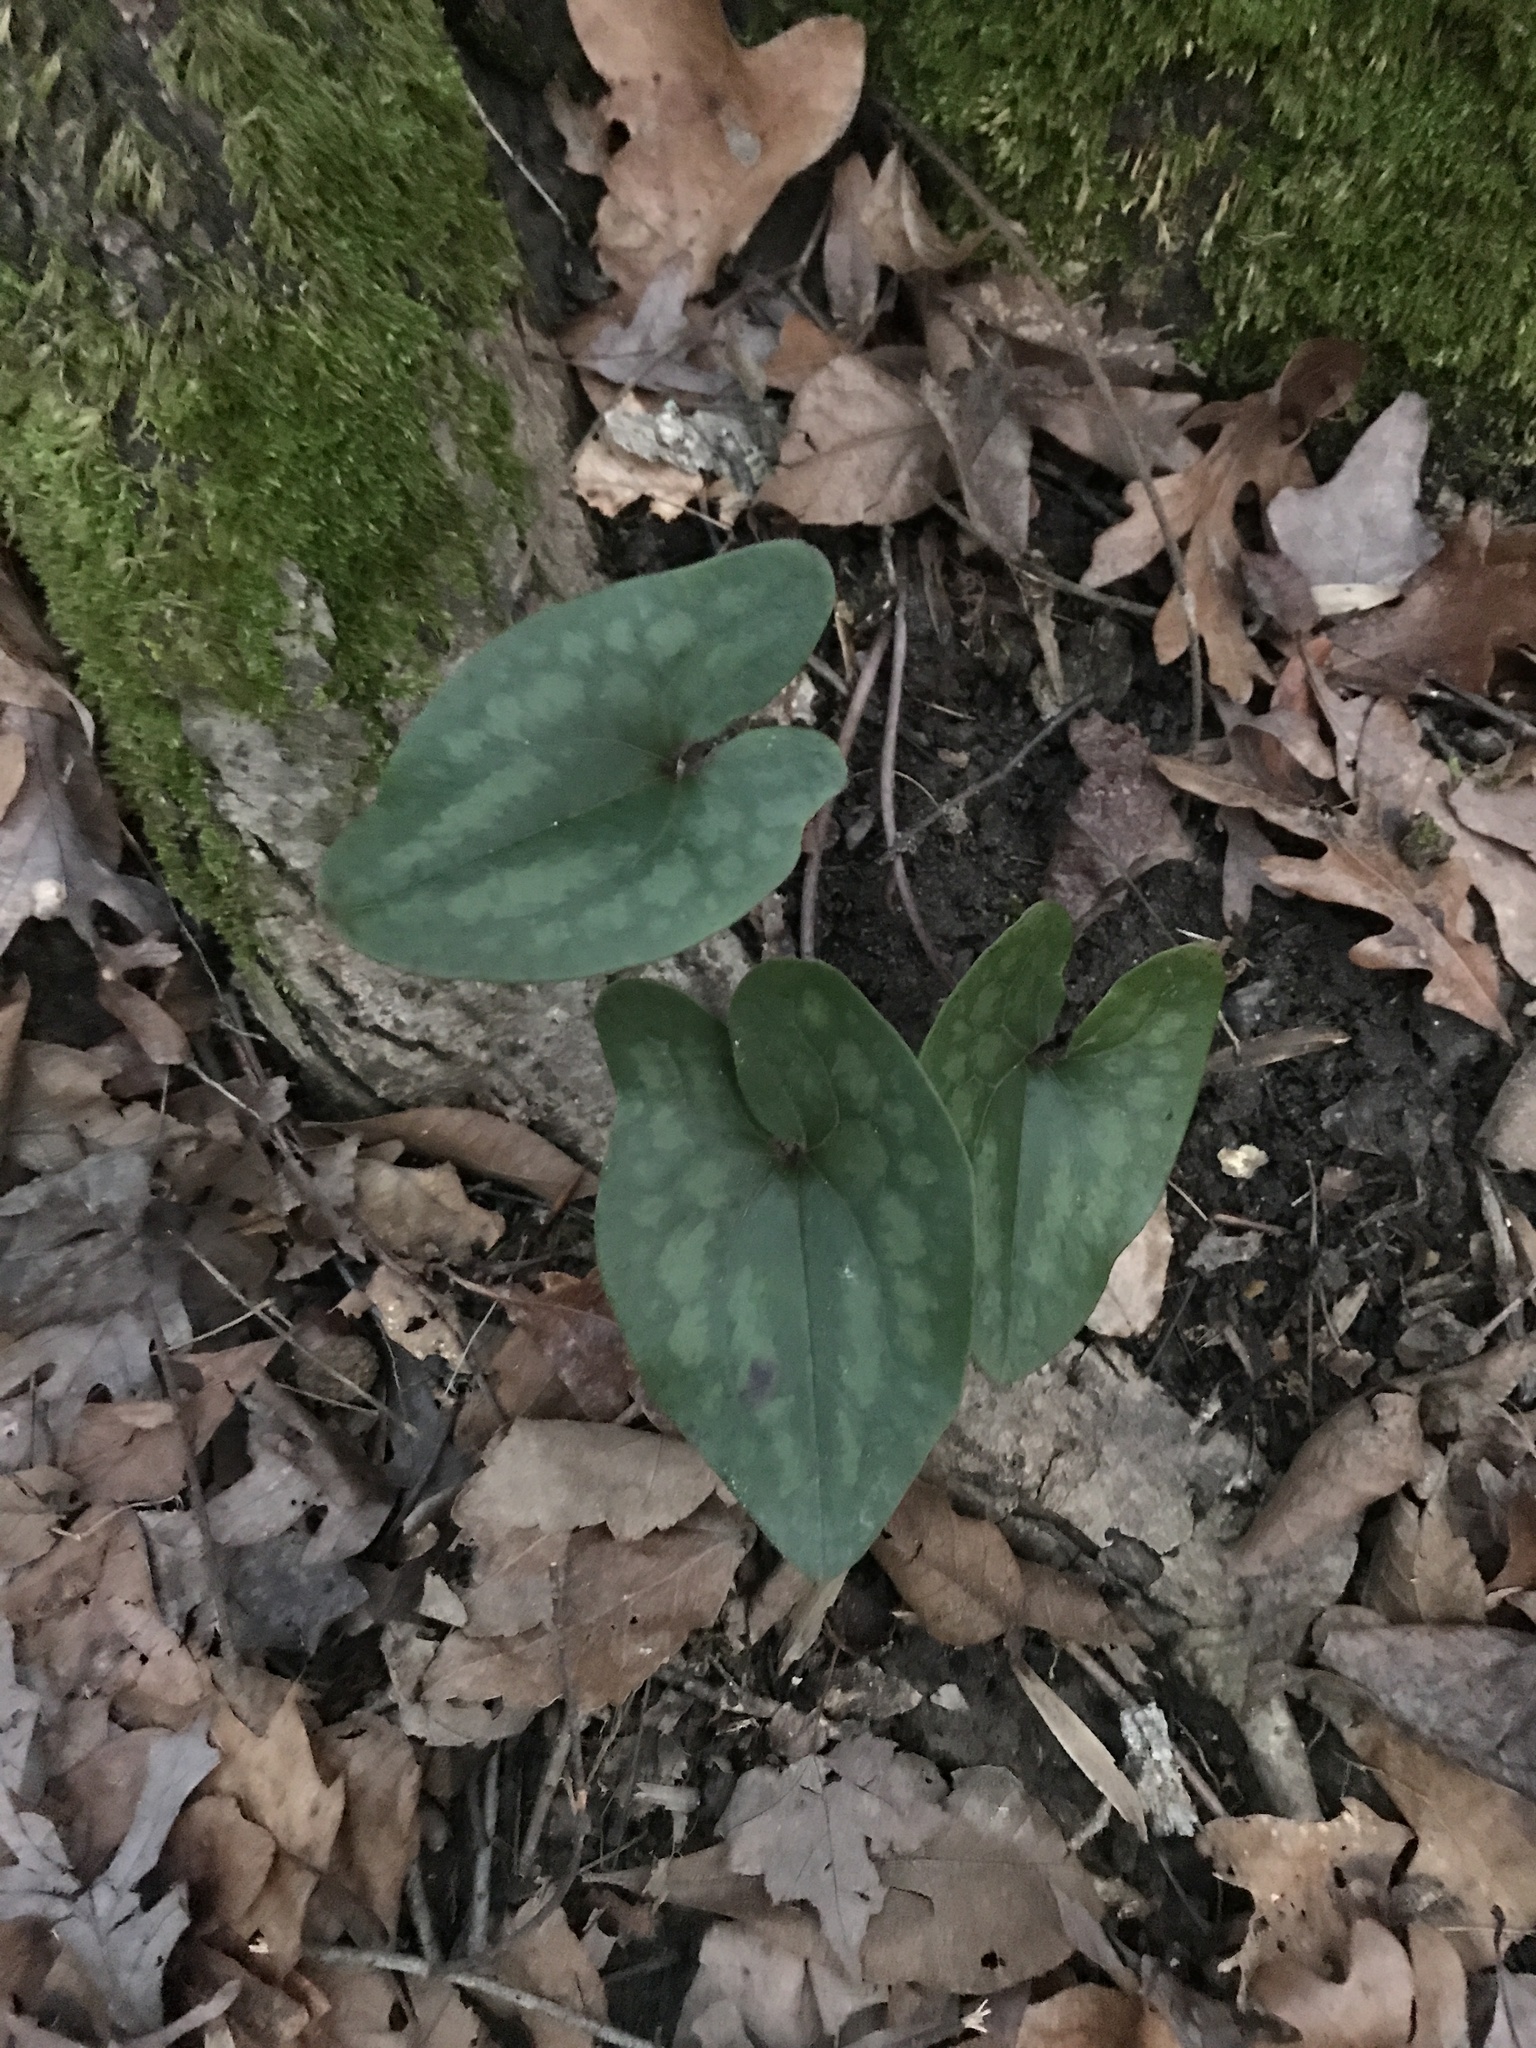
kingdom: Plantae
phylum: Tracheophyta
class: Magnoliopsida
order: Piperales
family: Aristolochiaceae
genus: Hexastylis
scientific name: Hexastylis arifolia
